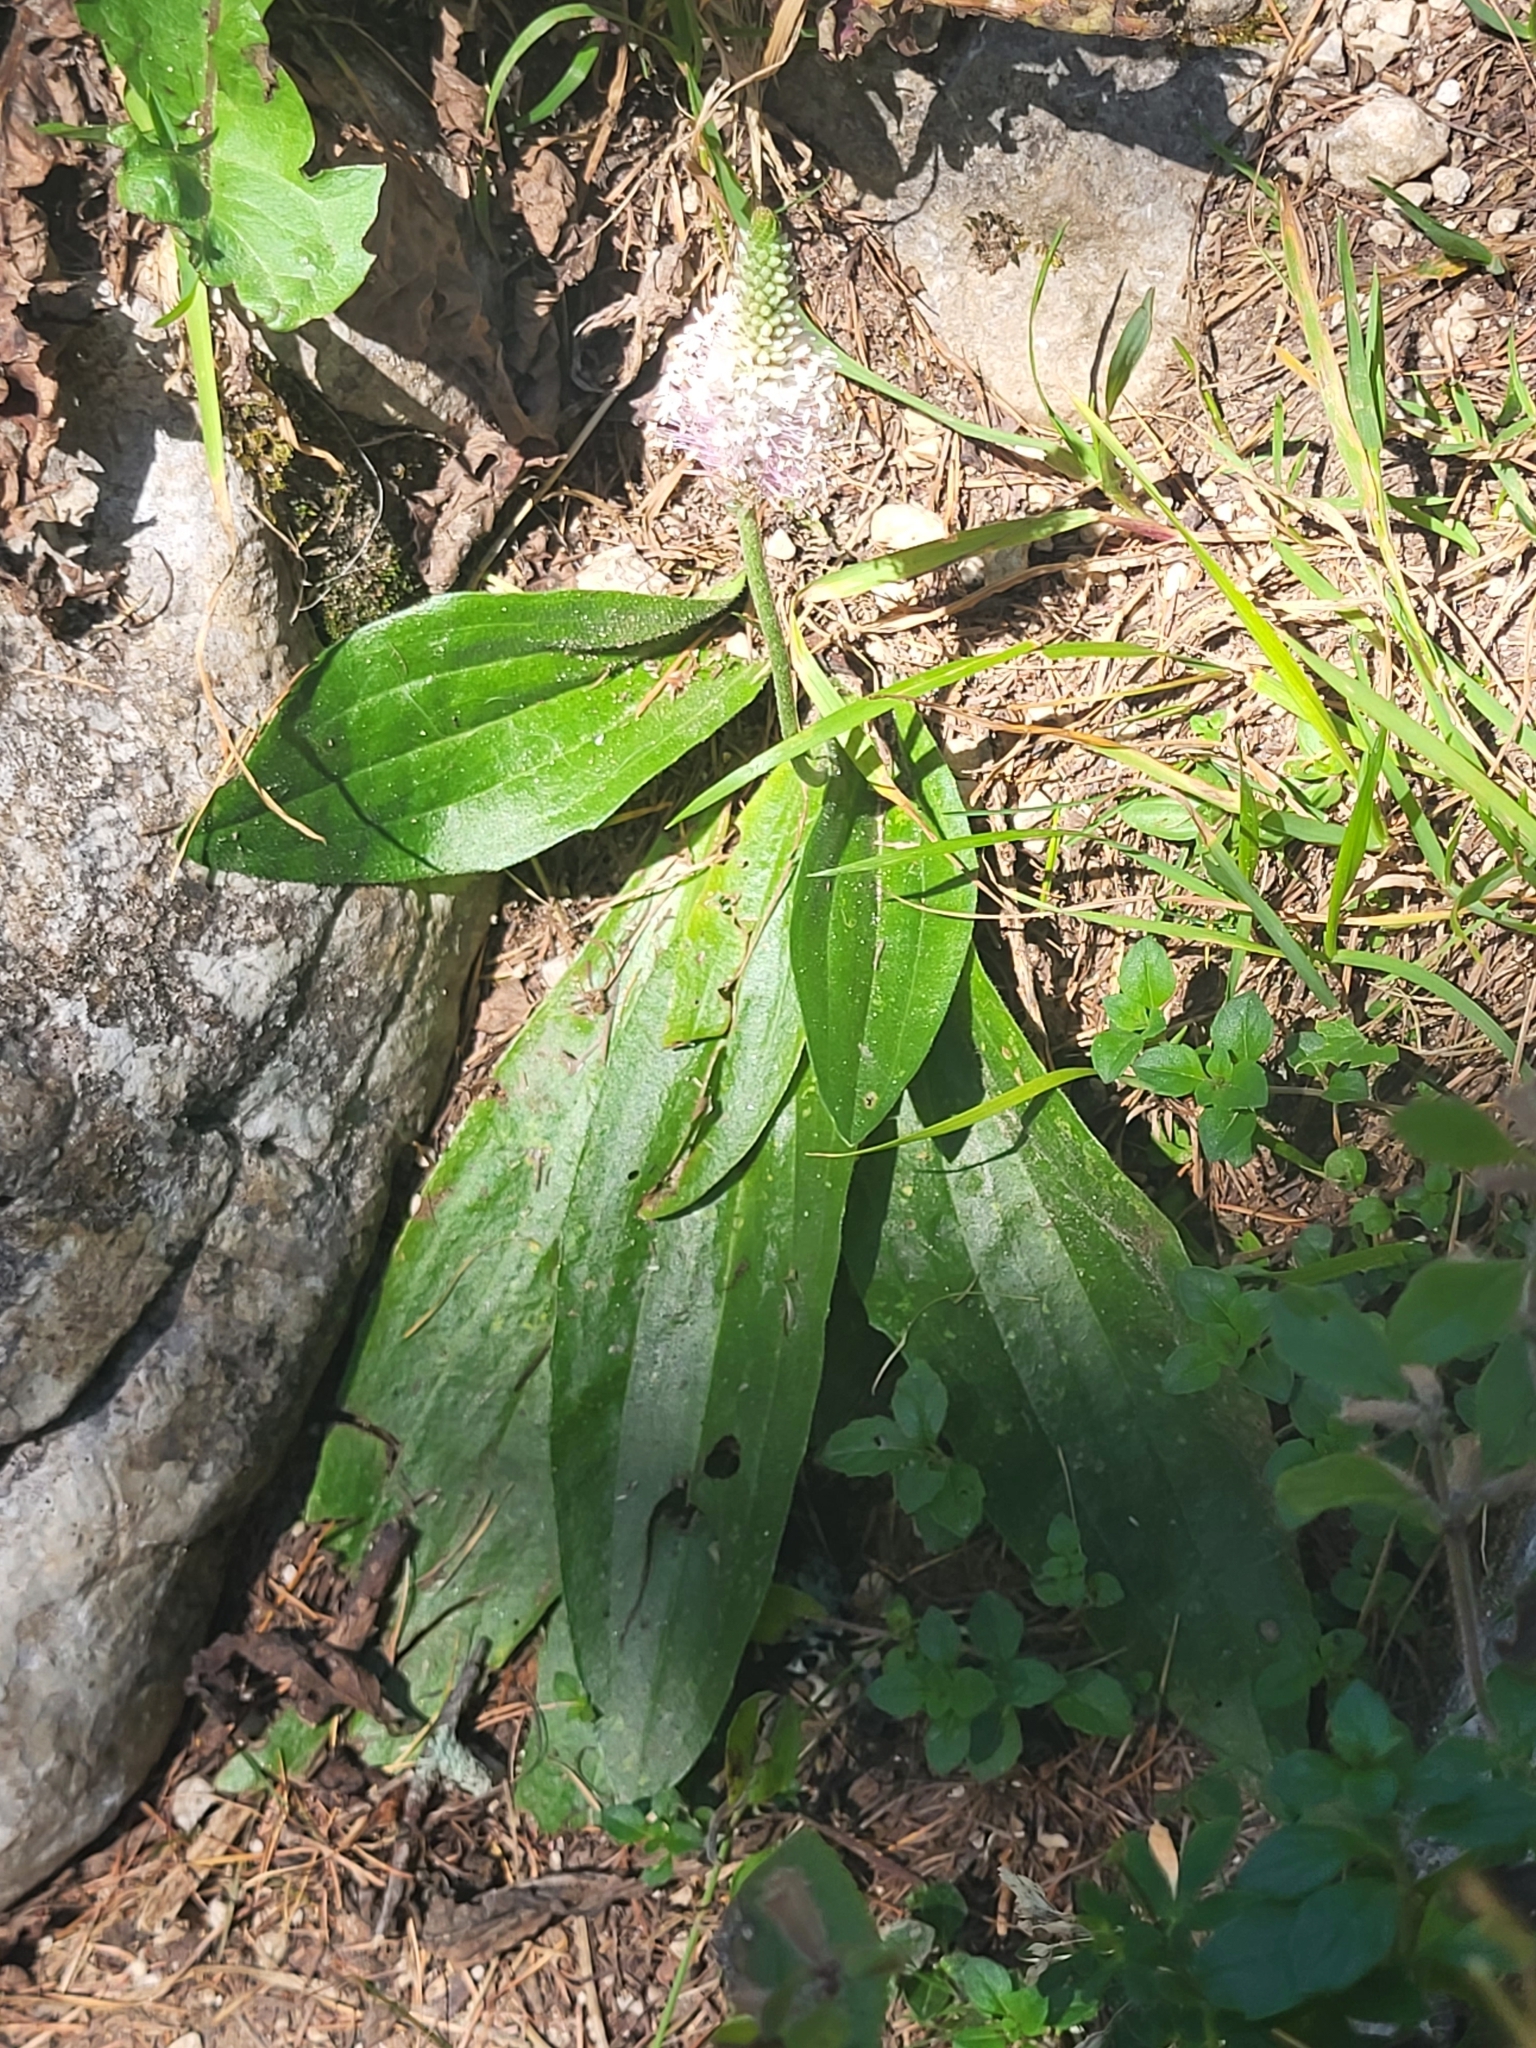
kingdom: Plantae
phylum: Tracheophyta
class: Magnoliopsida
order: Lamiales
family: Plantaginaceae
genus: Plantago
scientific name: Plantago media
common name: Hoary plantain
